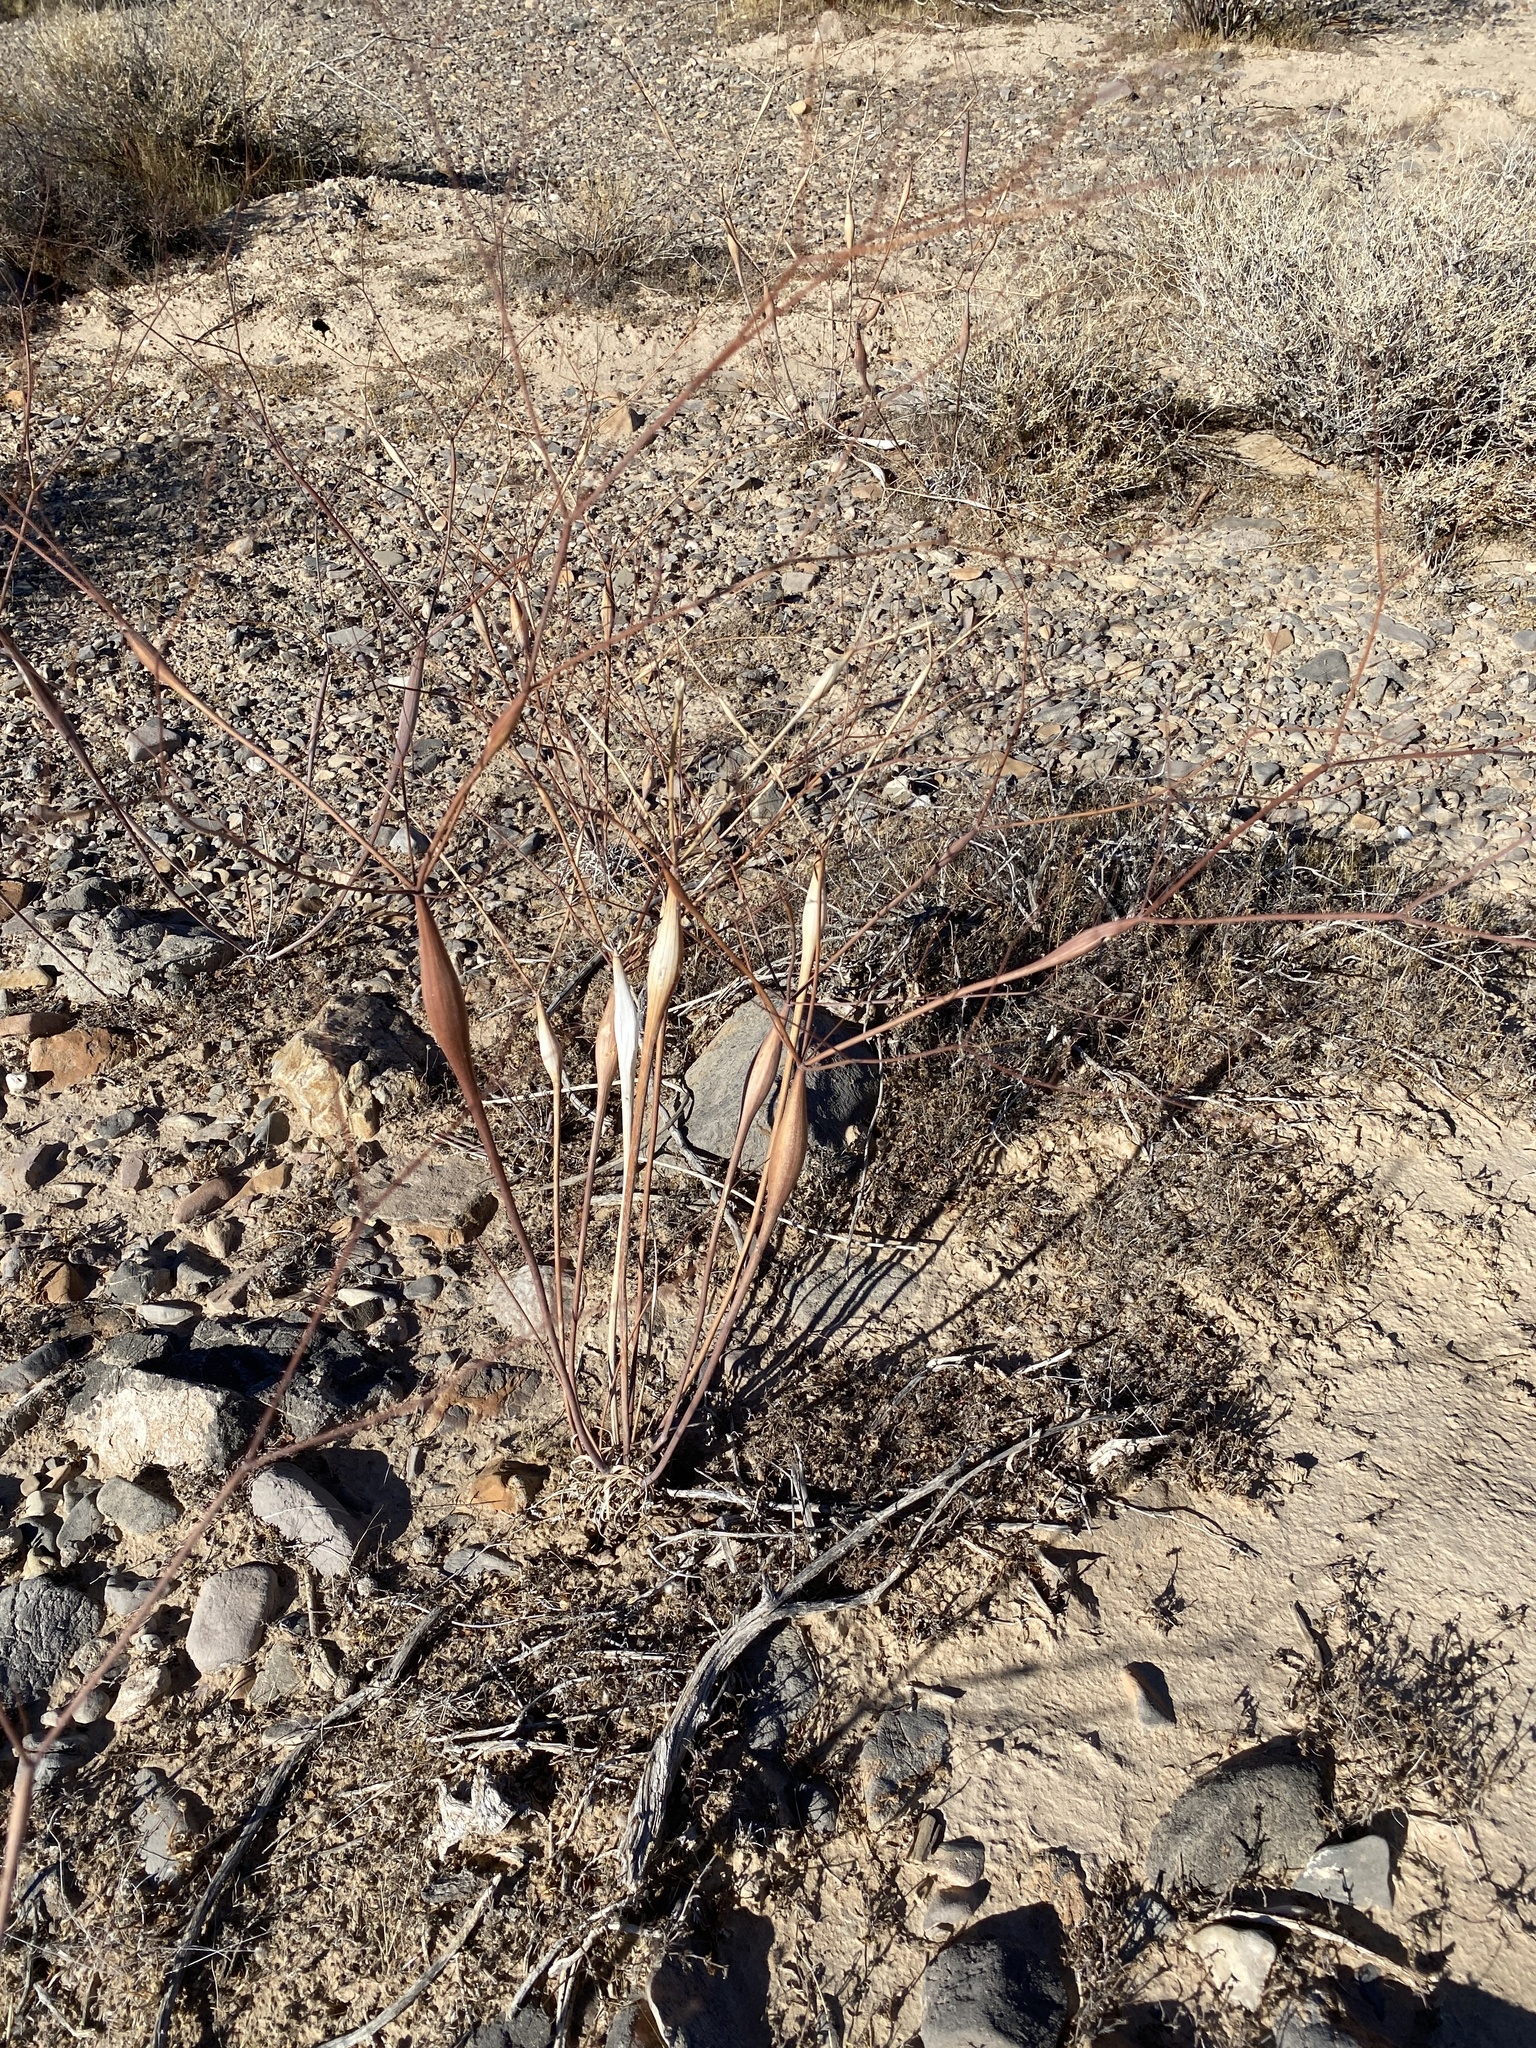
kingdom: Plantae
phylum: Tracheophyta
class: Magnoliopsida
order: Caryophyllales
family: Polygonaceae
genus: Eriogonum
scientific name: Eriogonum inflatum
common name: Desert trumpet
